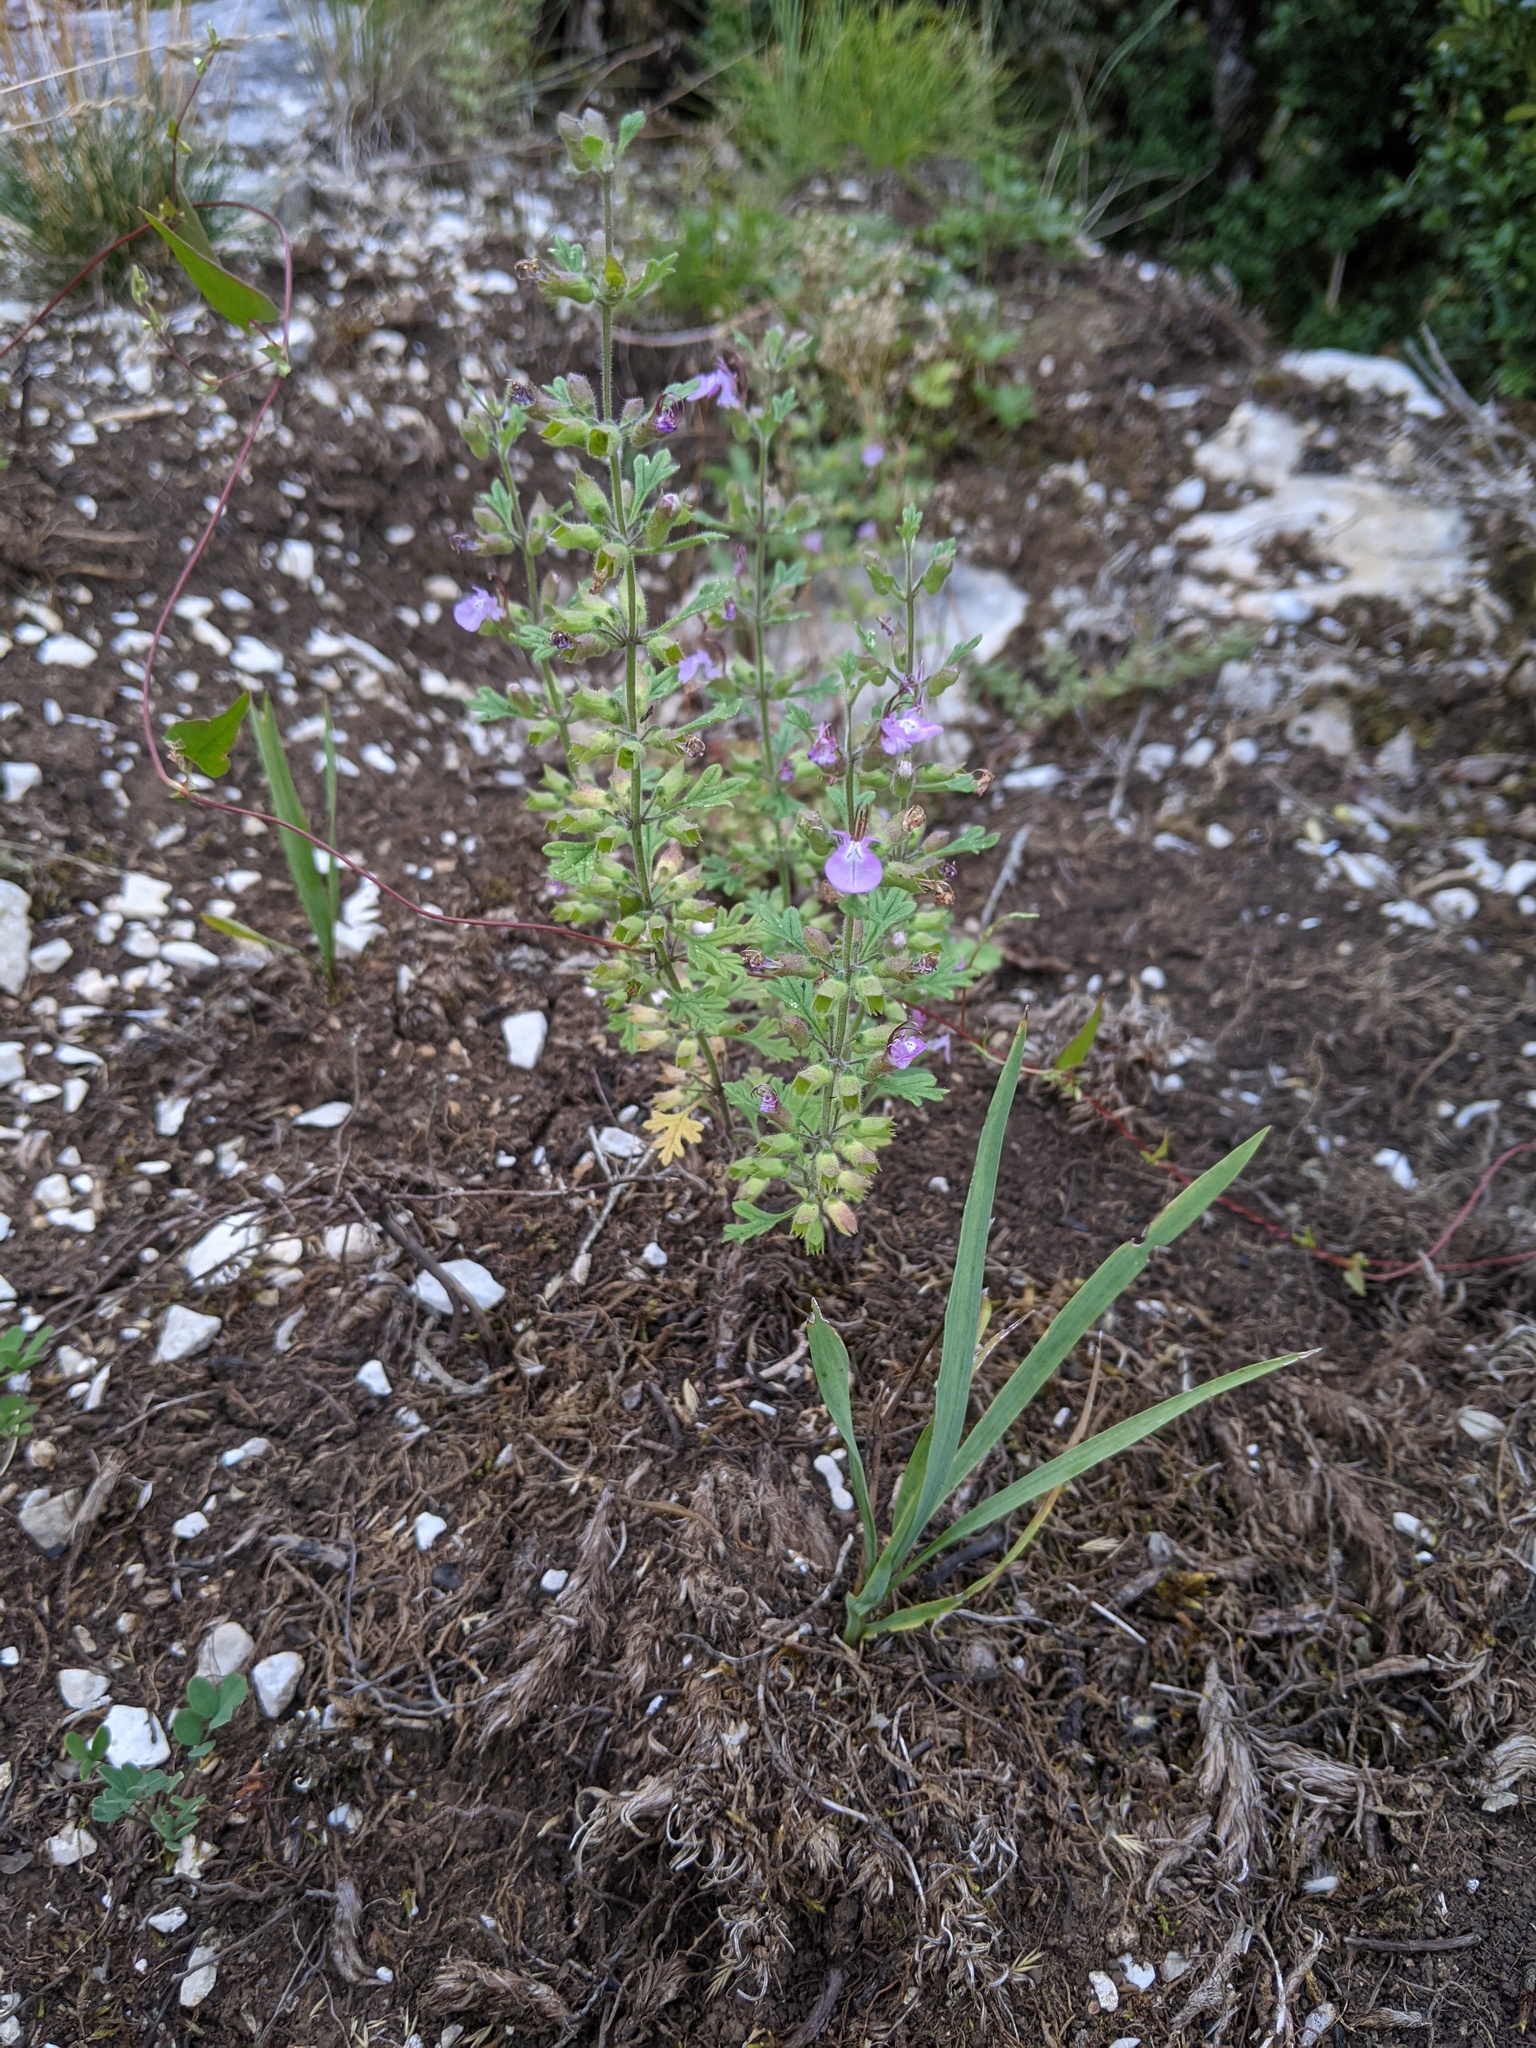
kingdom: Plantae
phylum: Tracheophyta
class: Magnoliopsida
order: Lamiales
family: Lamiaceae
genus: Teucrium
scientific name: Teucrium botrys
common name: Cut-leaved germander
